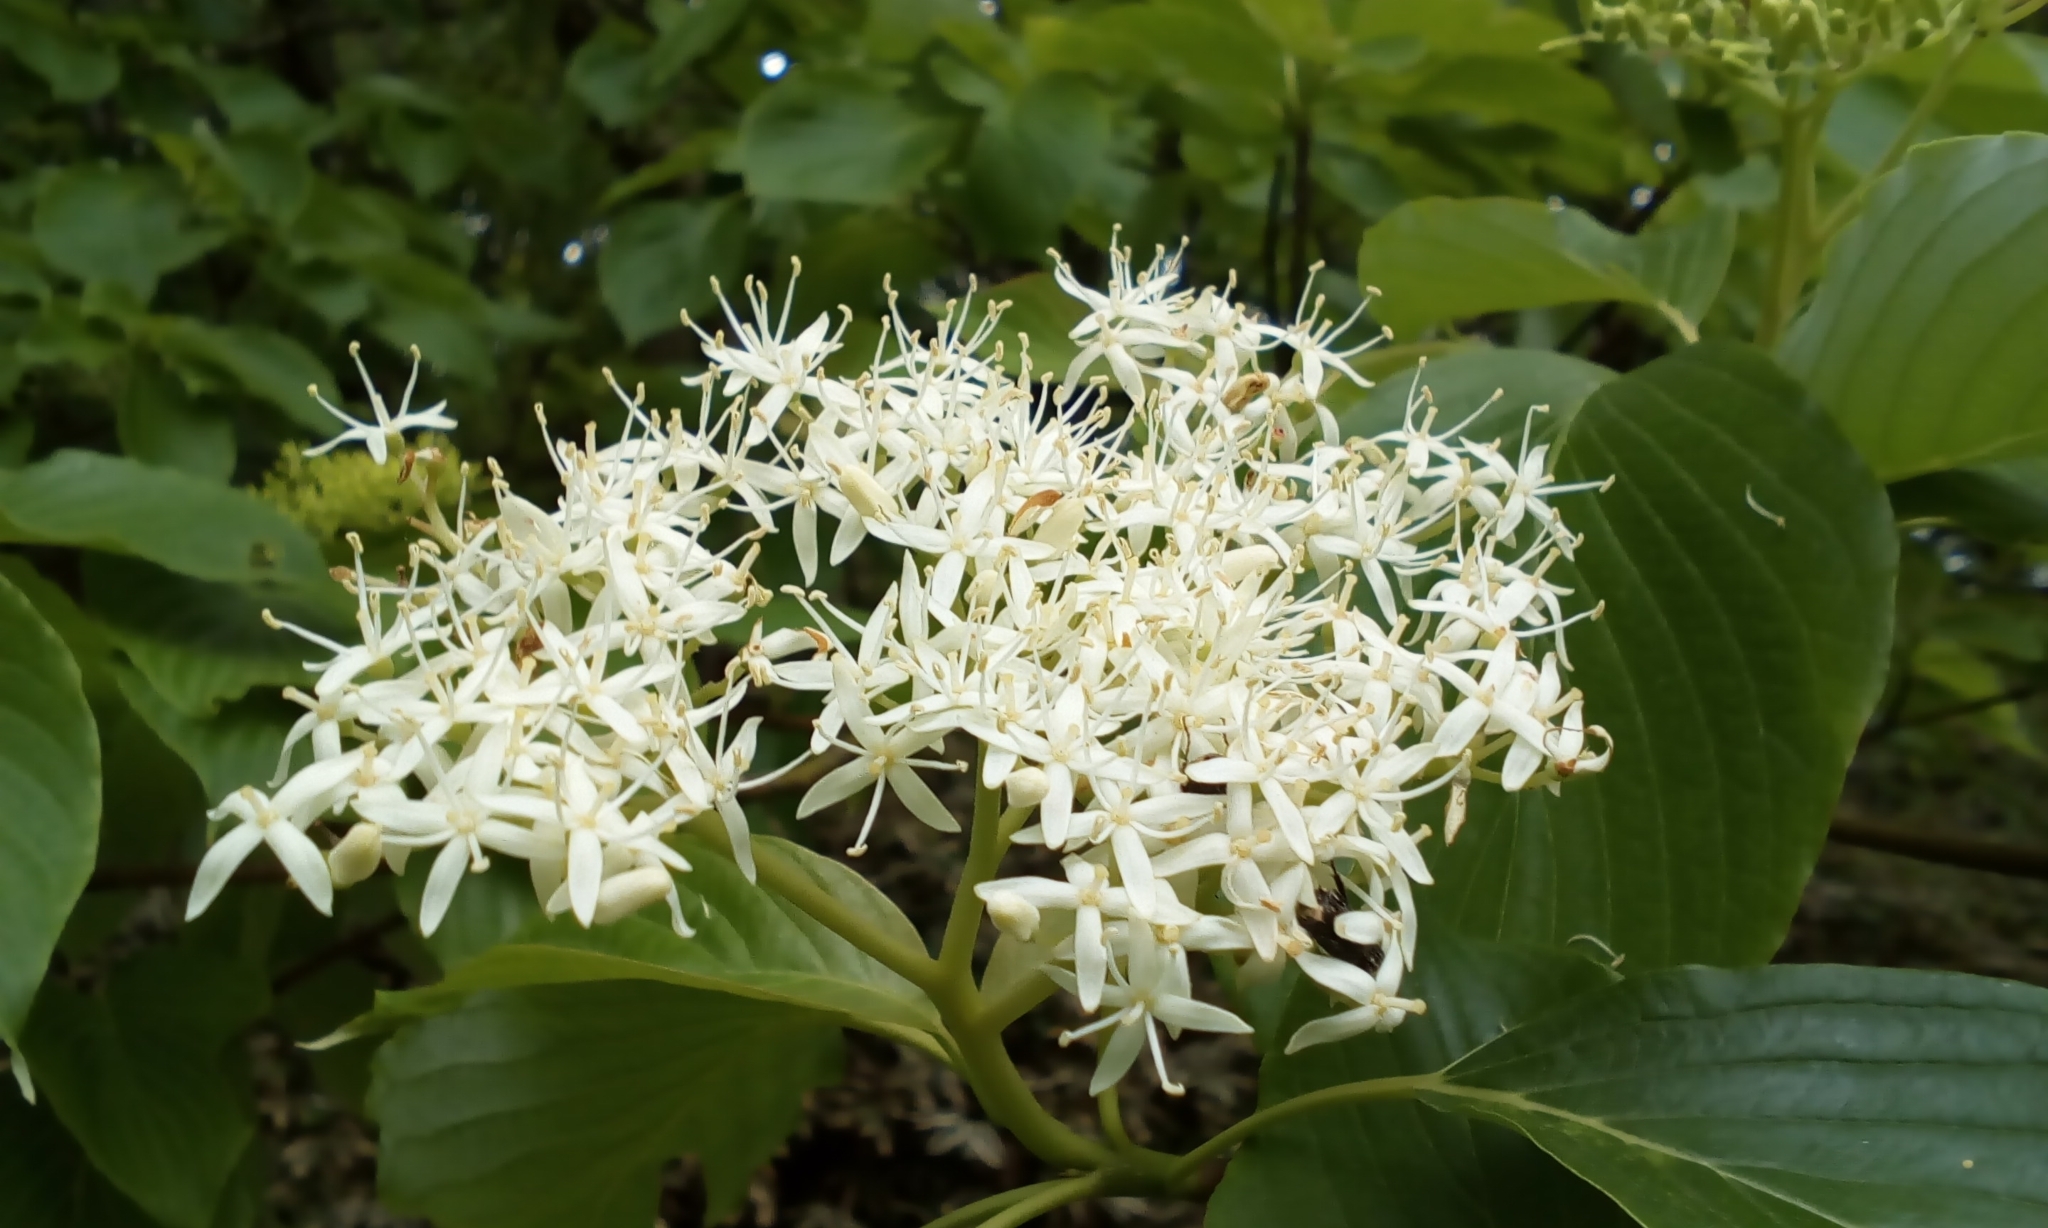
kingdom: Plantae
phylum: Tracheophyta
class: Magnoliopsida
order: Cornales
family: Cornaceae
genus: Cornus
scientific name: Cornus controversa
